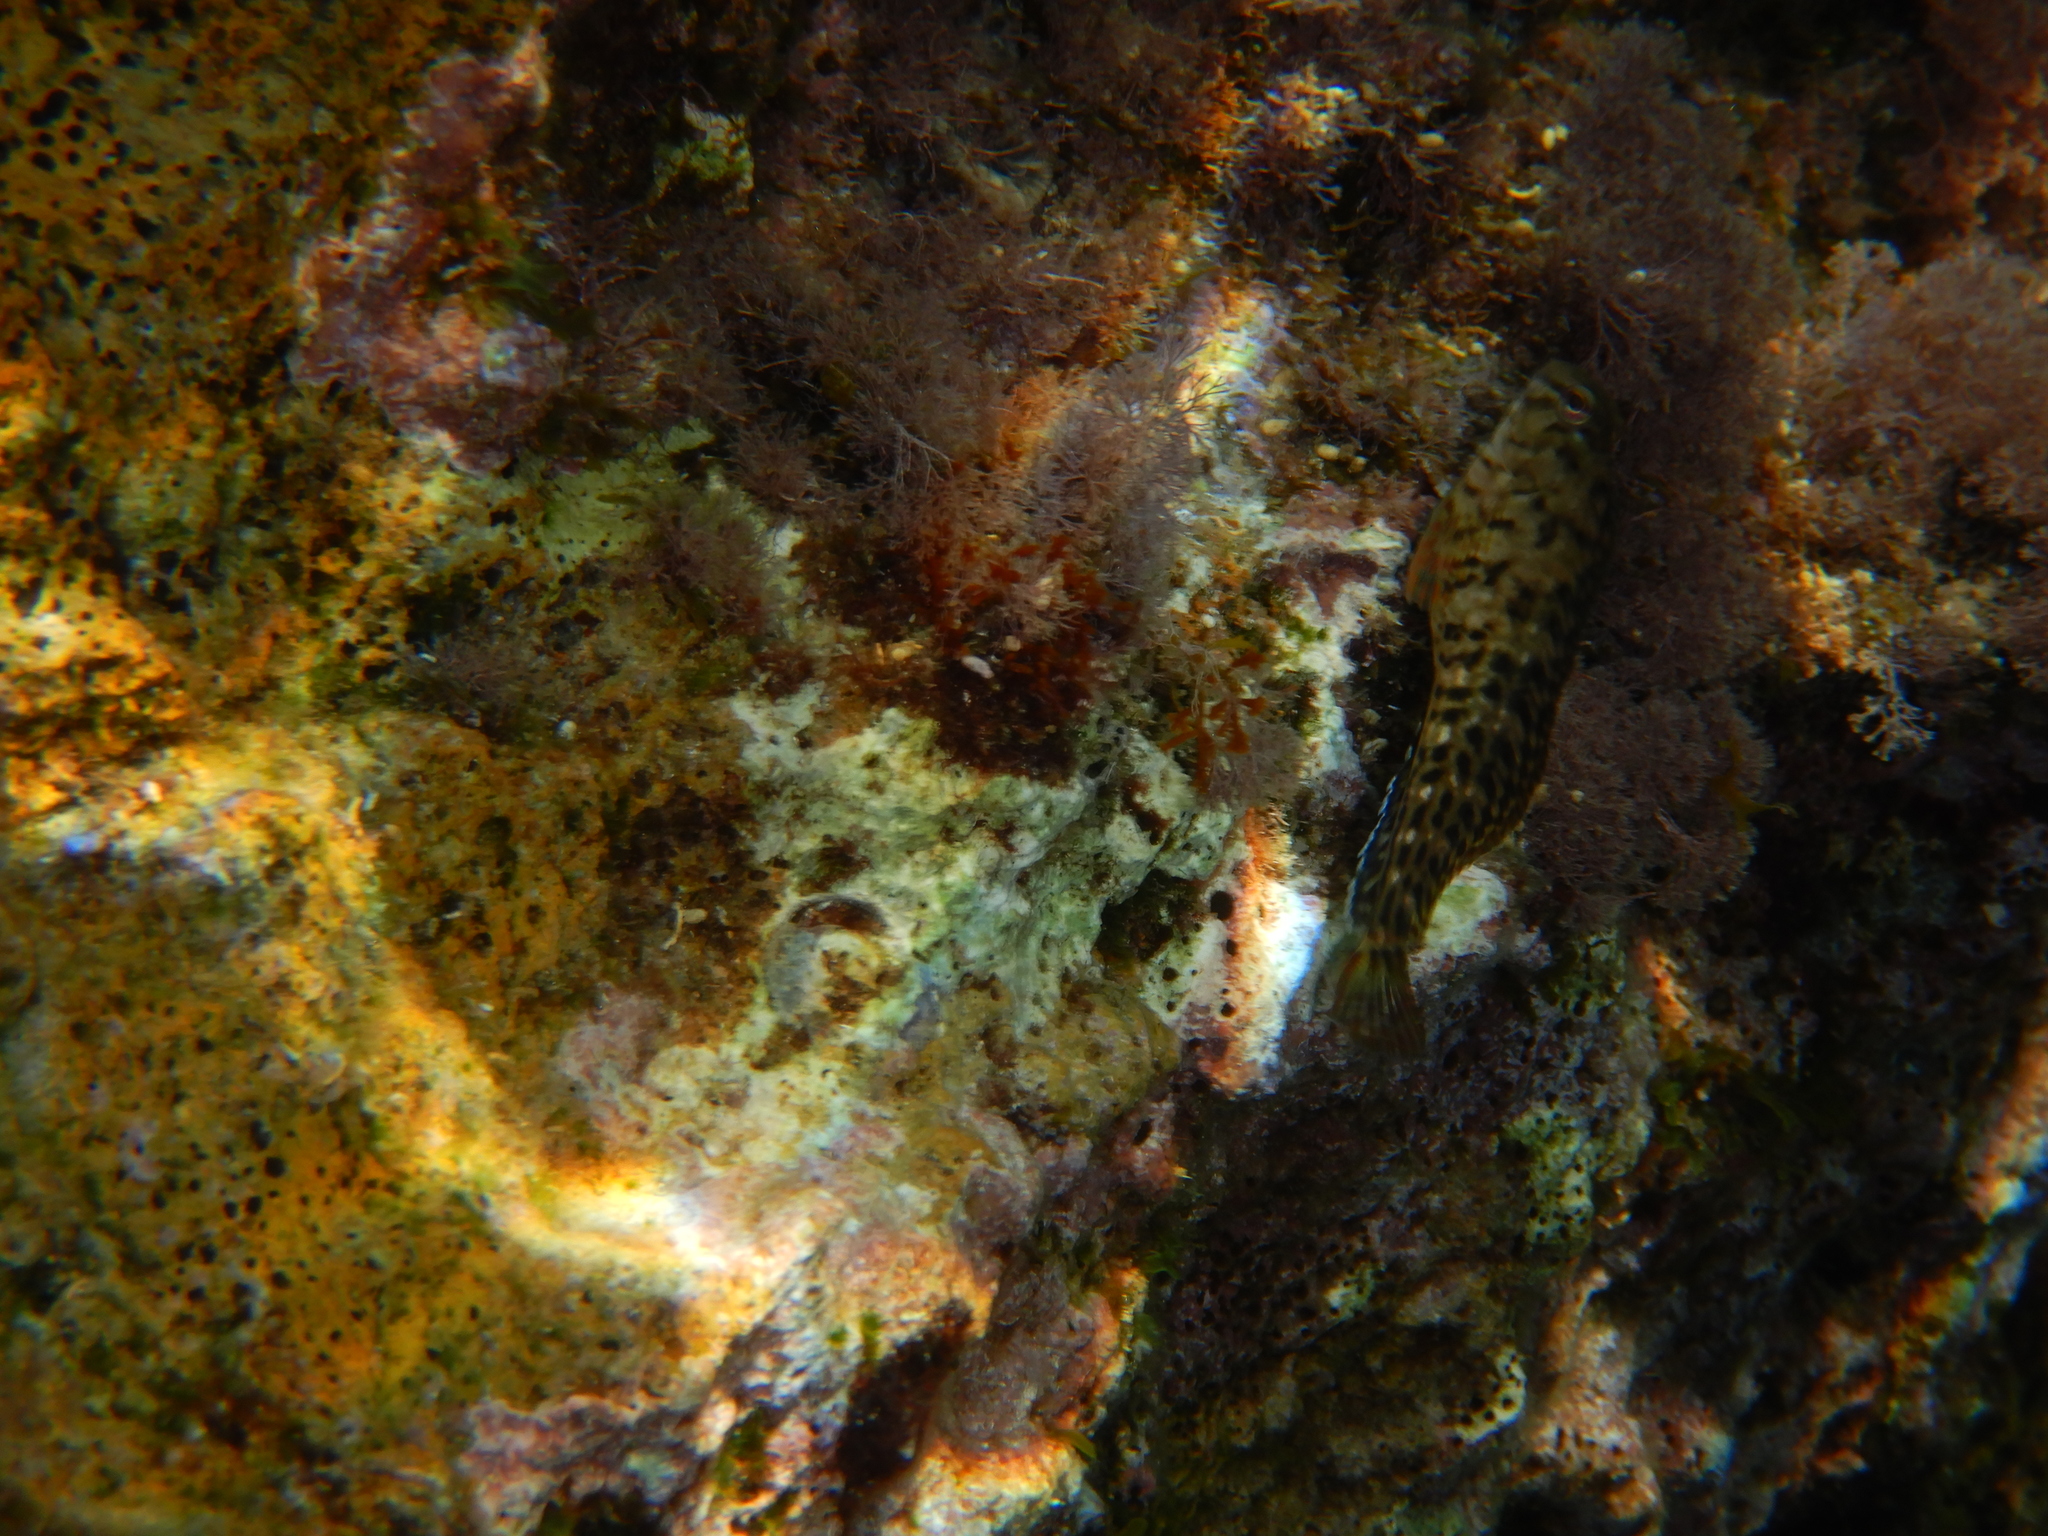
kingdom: Animalia
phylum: Chordata
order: Perciformes
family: Blenniidae
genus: Parablennius
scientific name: Parablennius sanguinolentus
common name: Black sea blenny
